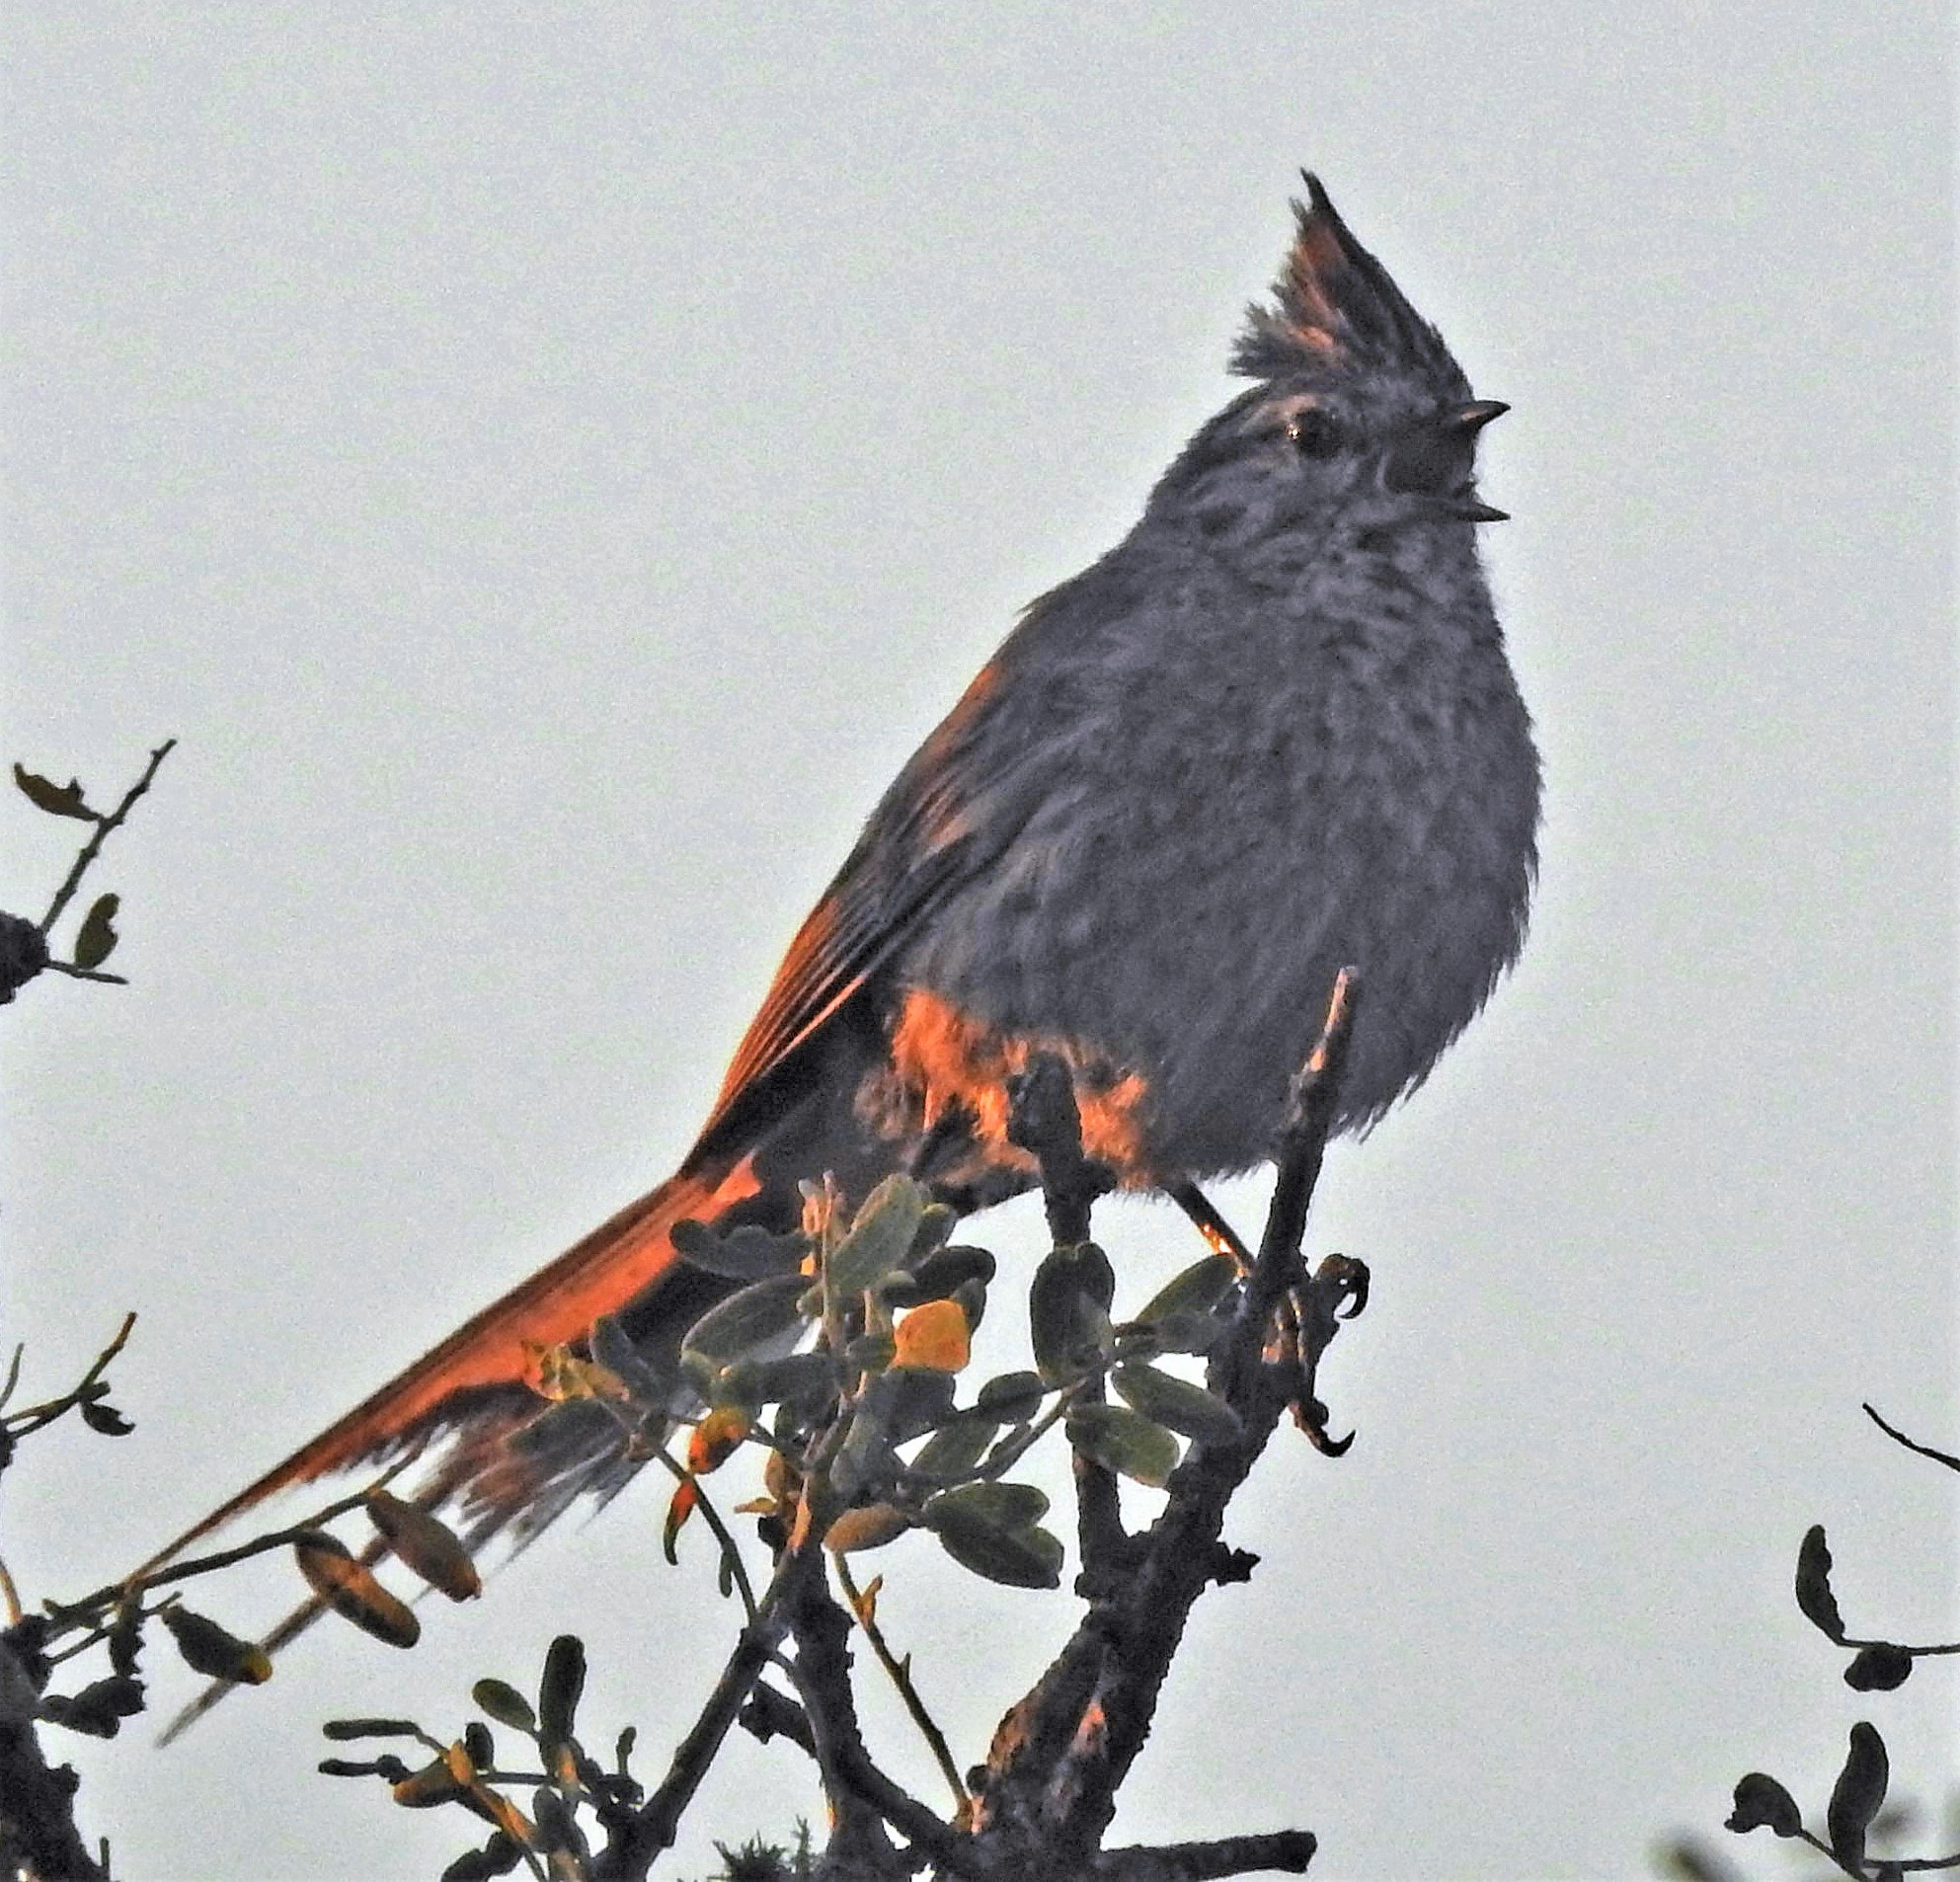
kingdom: Animalia
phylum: Chordata
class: Aves
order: Passeriformes
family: Furnariidae
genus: Leptasthenura
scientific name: Leptasthenura platensis
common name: Tufted tit-spinetail
